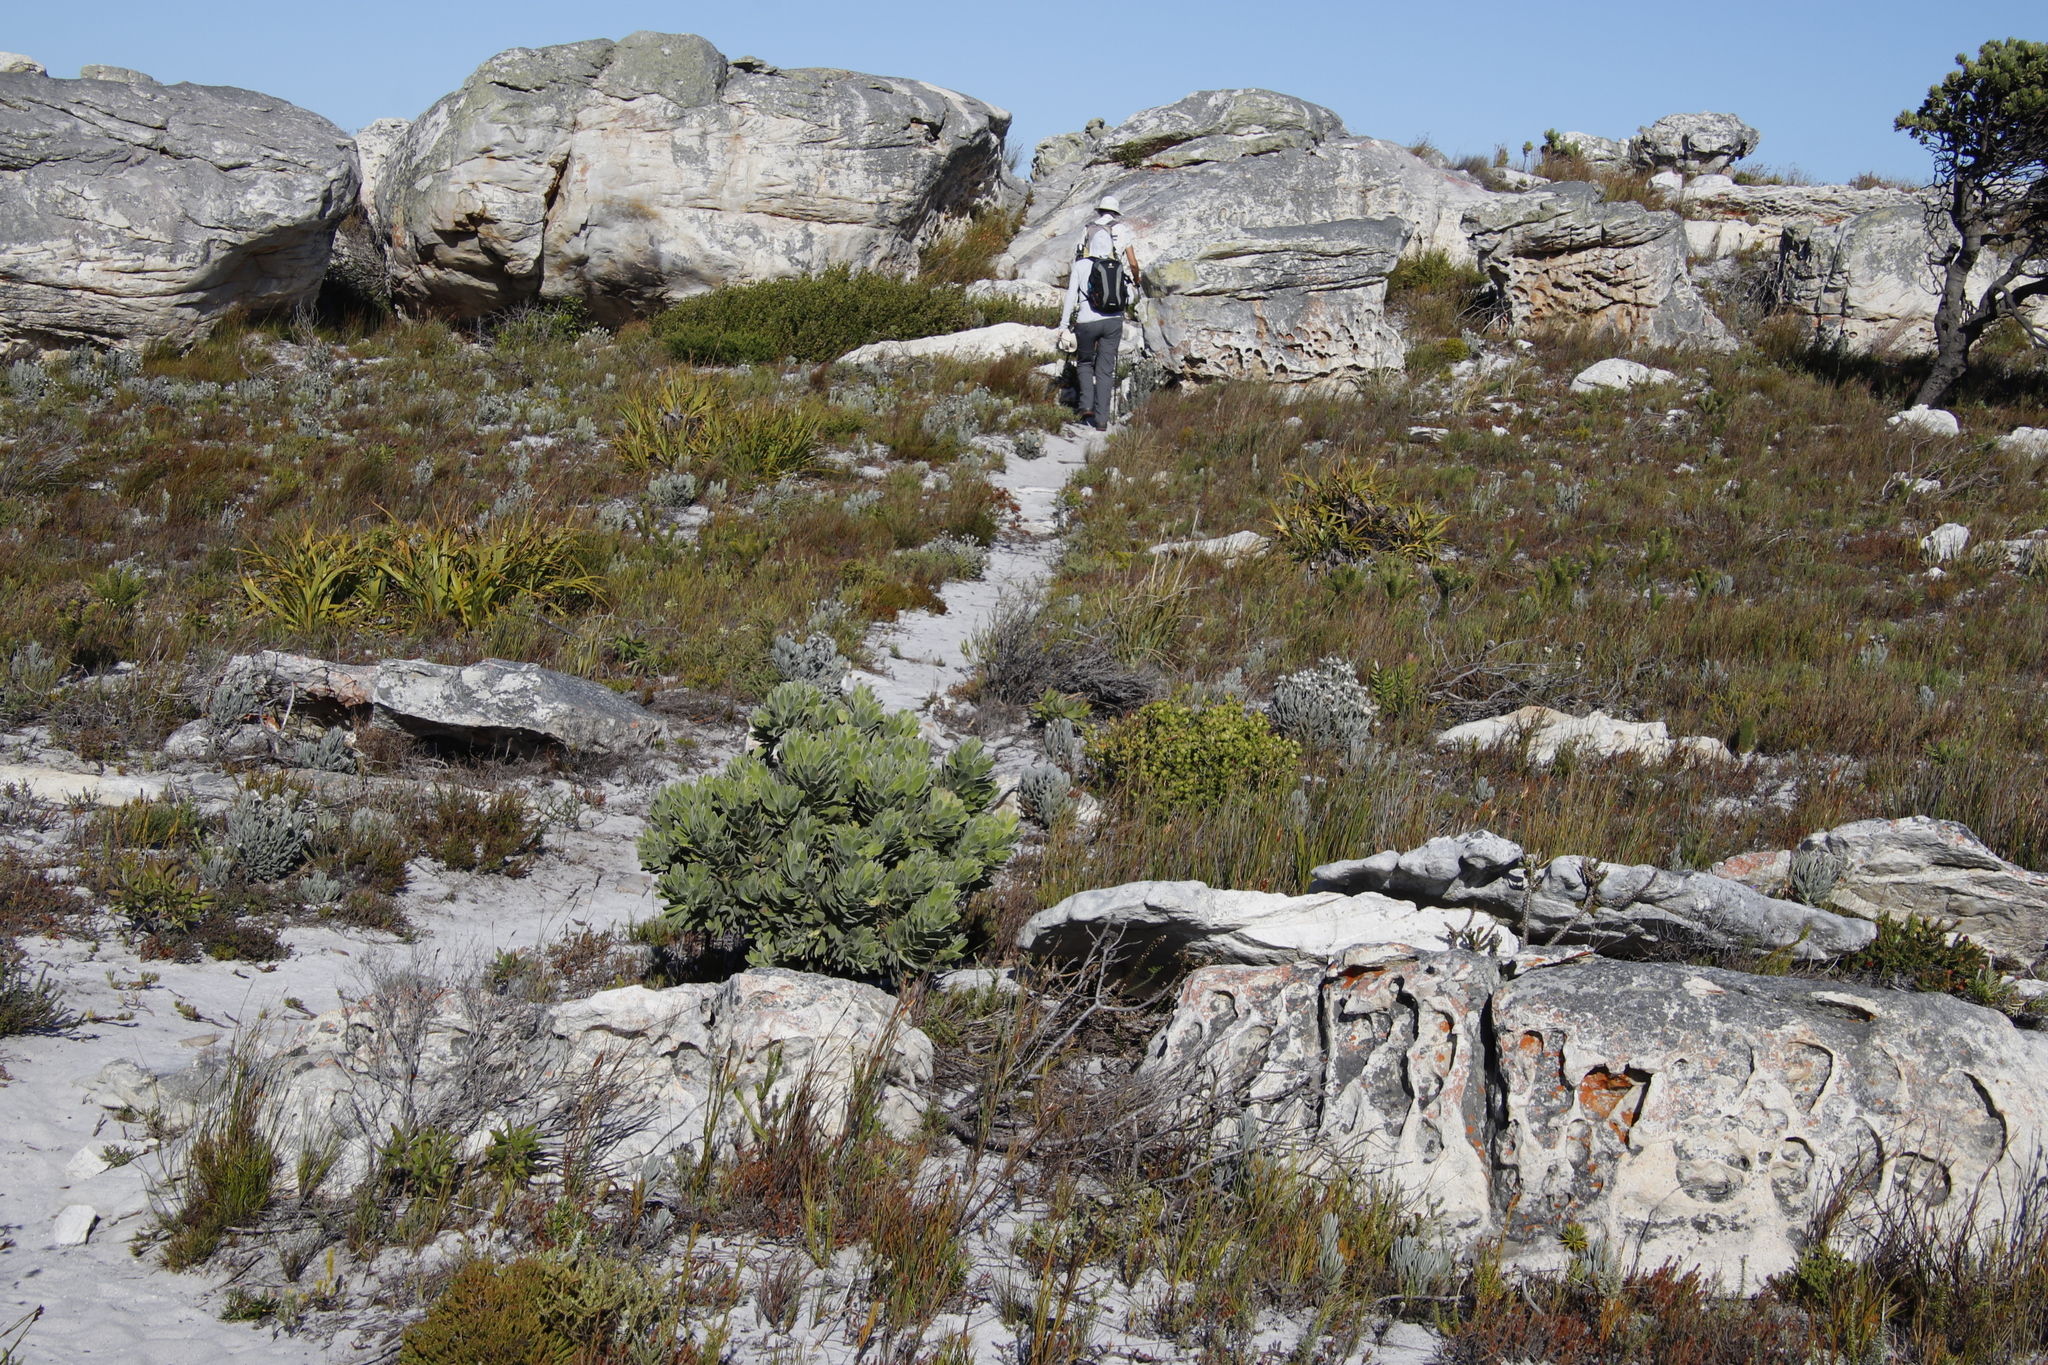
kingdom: Plantae
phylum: Tracheophyta
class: Magnoliopsida
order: Proteales
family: Proteaceae
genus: Mimetes
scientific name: Mimetes fimbriifolius
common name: Fringed bottlebrush
